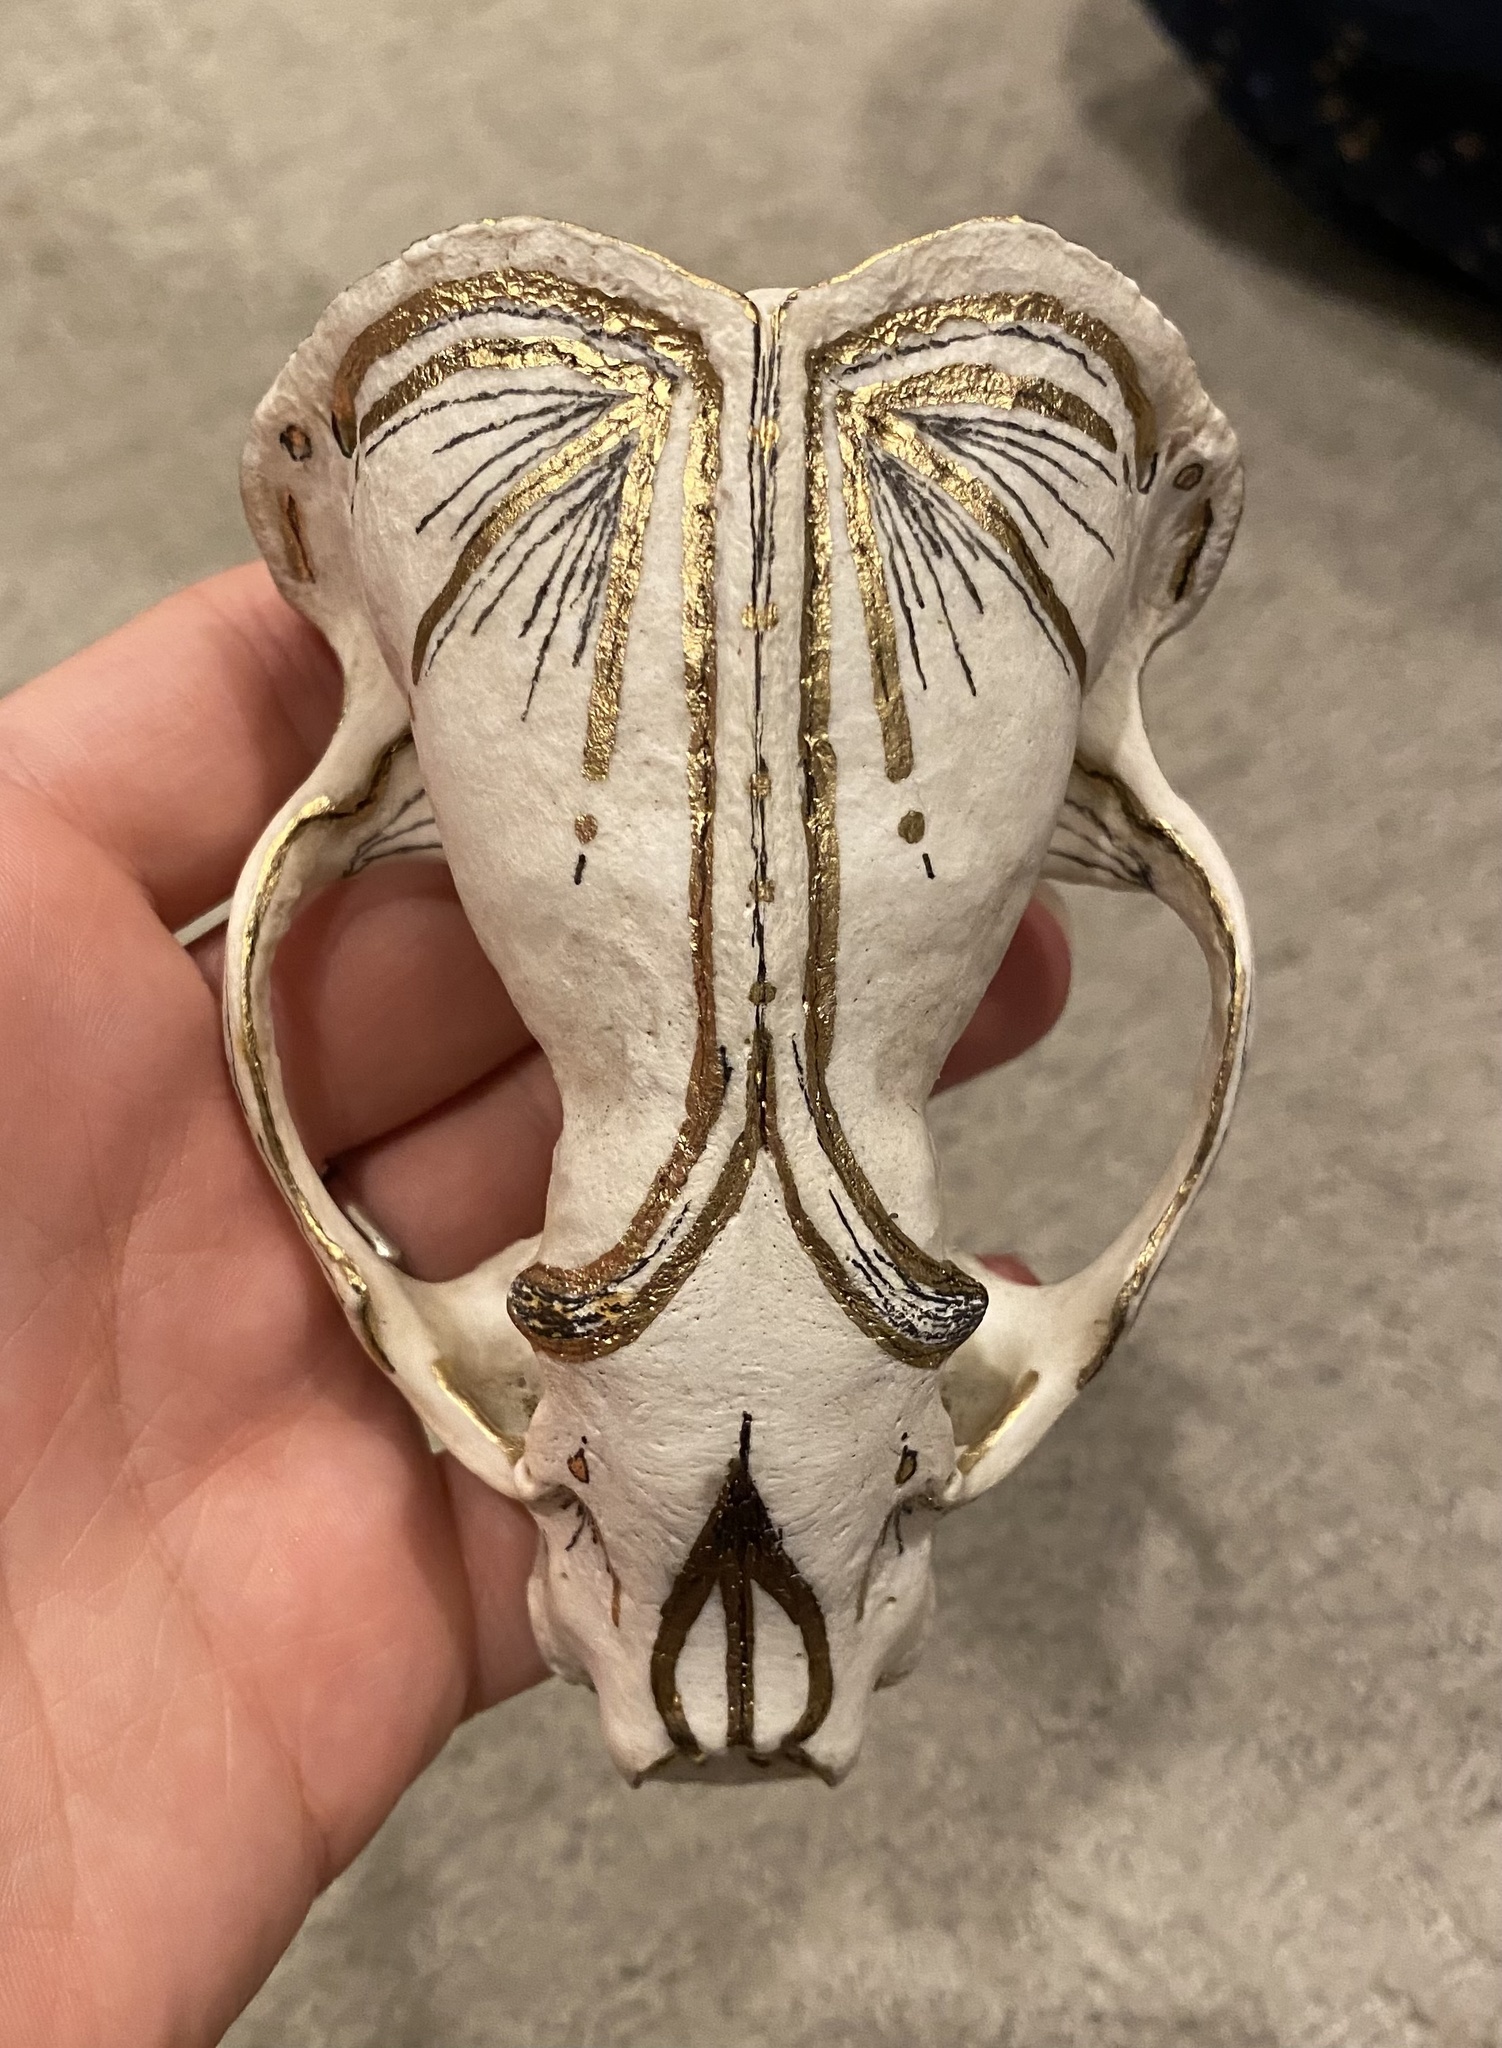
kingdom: Animalia
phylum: Chordata
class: Mammalia
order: Carnivora
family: Mustelidae
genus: Lontra
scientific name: Lontra canadensis
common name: North american river otter
